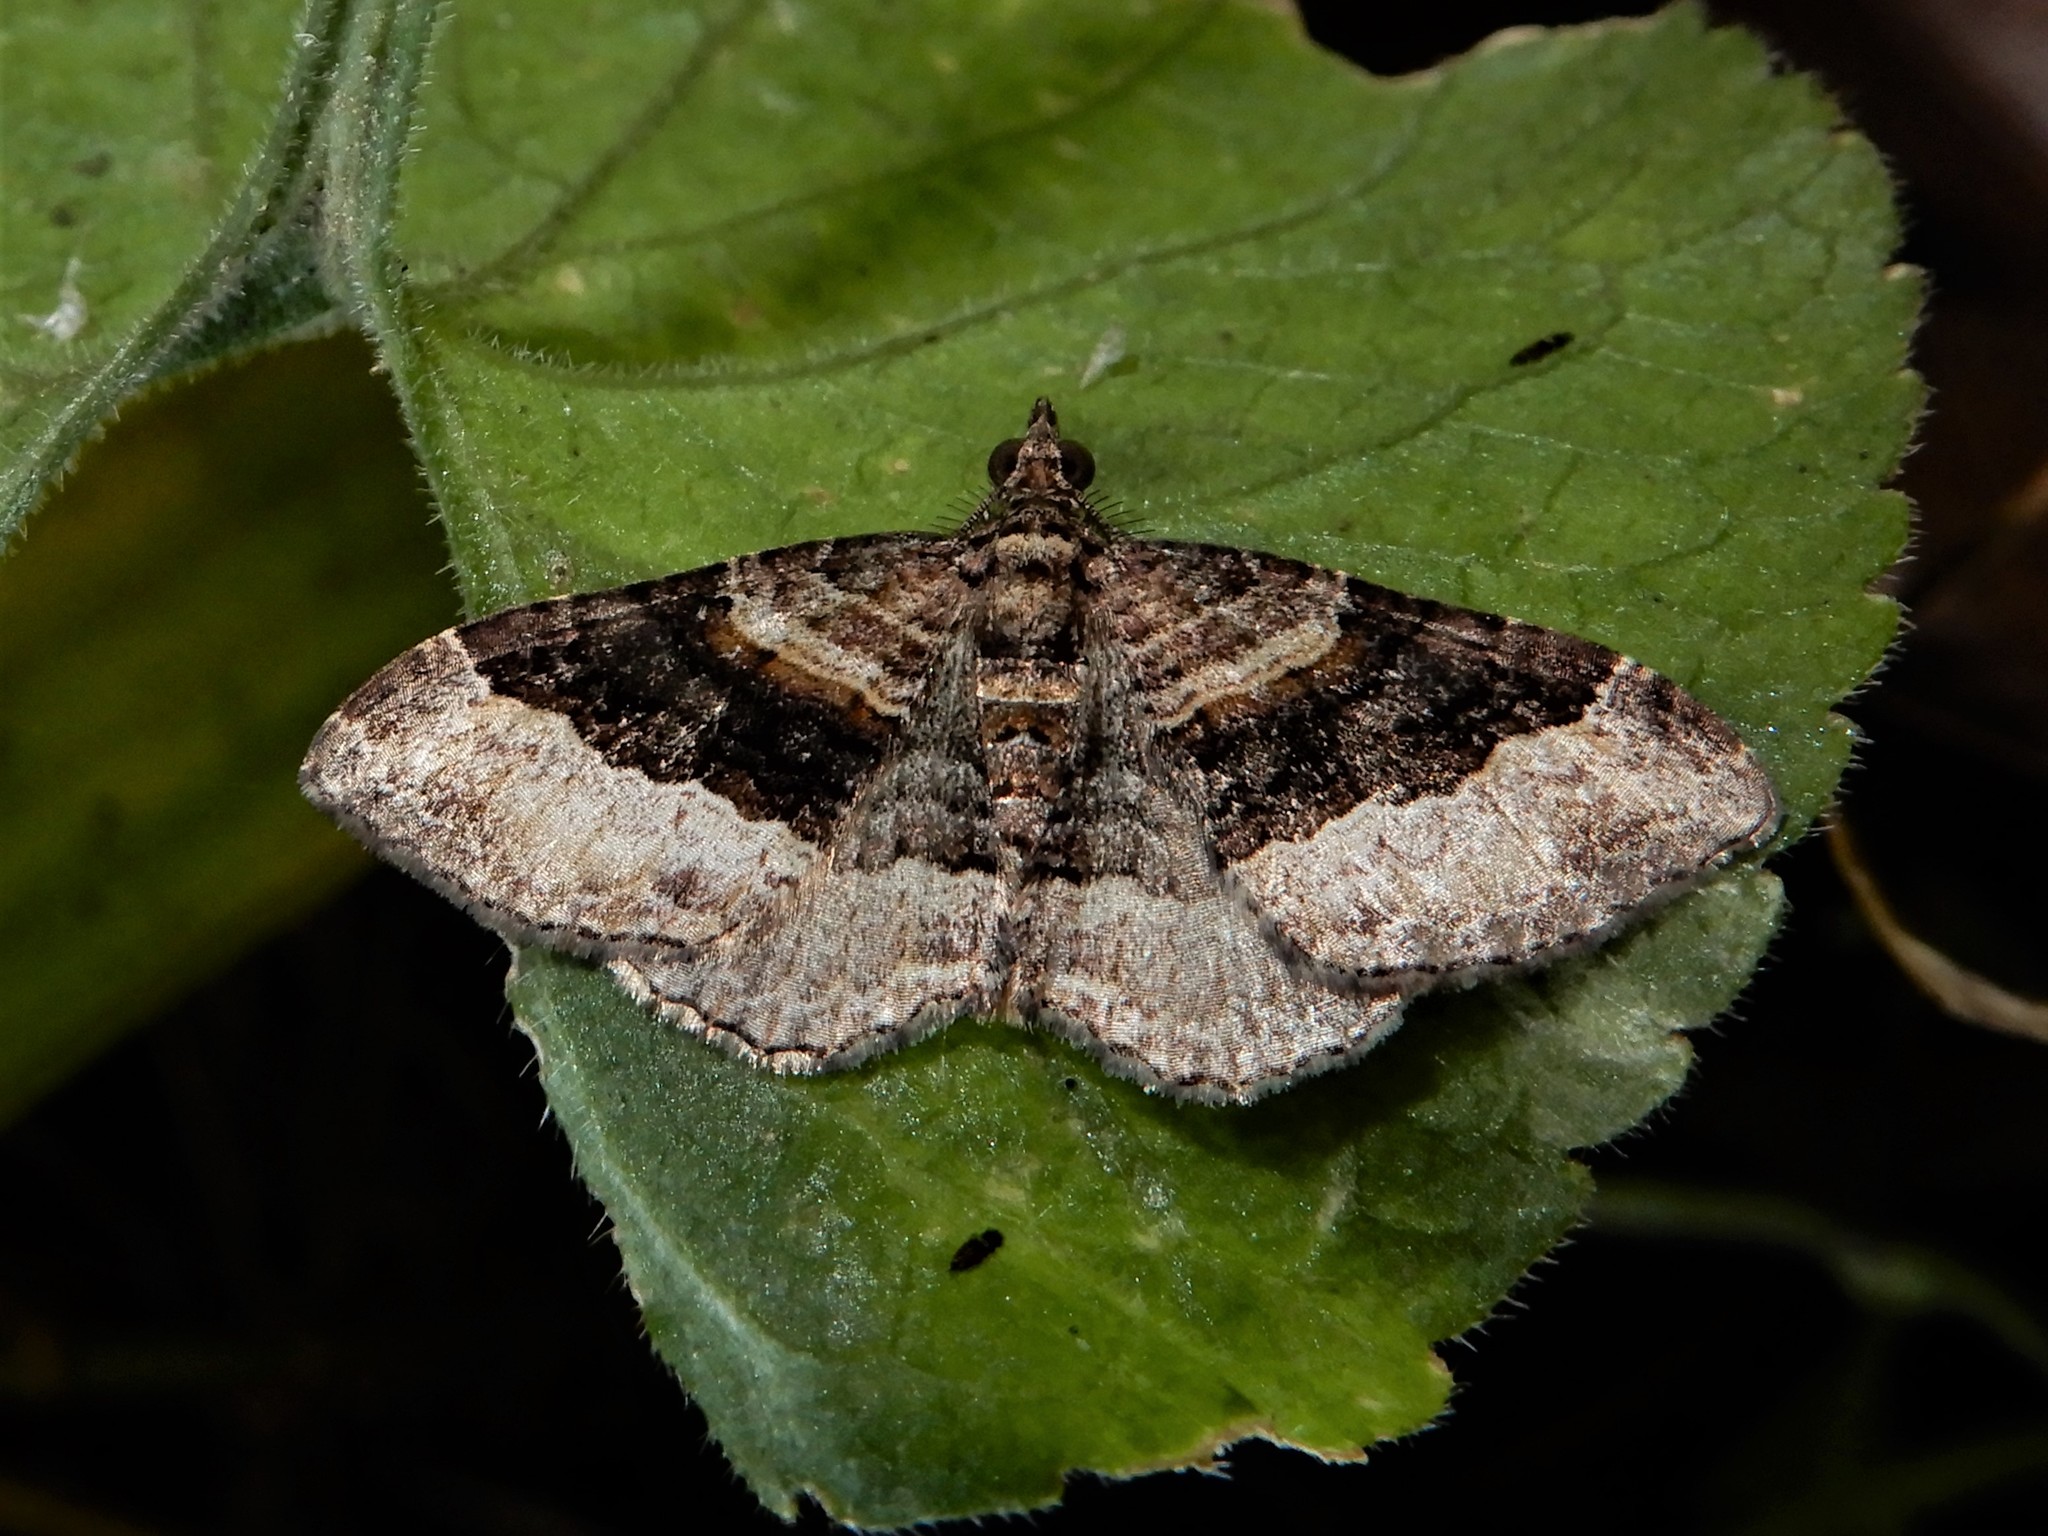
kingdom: Animalia
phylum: Arthropoda
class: Insecta
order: Lepidoptera
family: Geometridae
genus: Epyaxa
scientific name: Epyaxa lucidata
